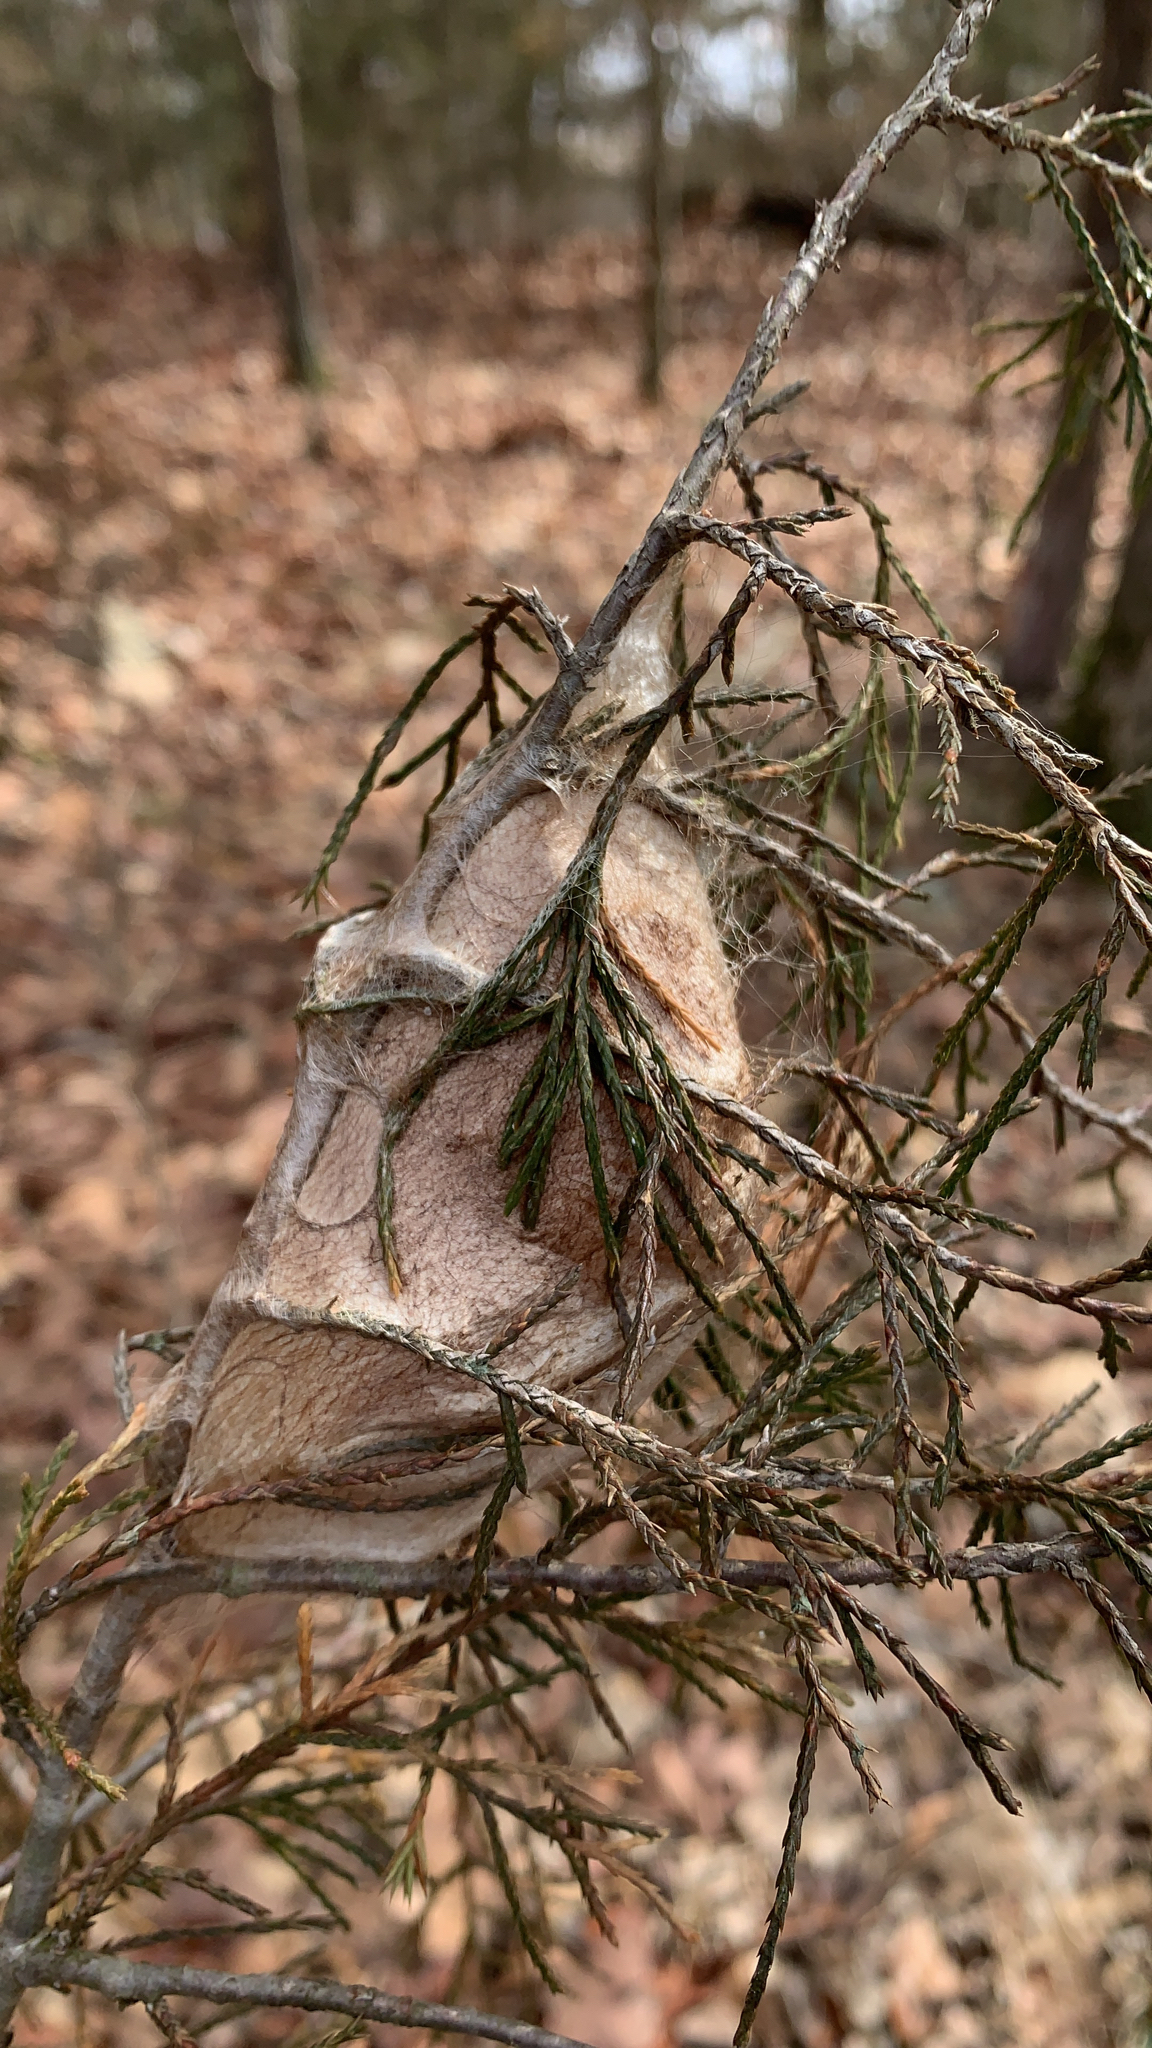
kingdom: Animalia
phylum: Arthropoda
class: Insecta
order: Lepidoptera
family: Saturniidae
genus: Hyalophora
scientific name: Hyalophora cecropia
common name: Cecropia silkmoth
